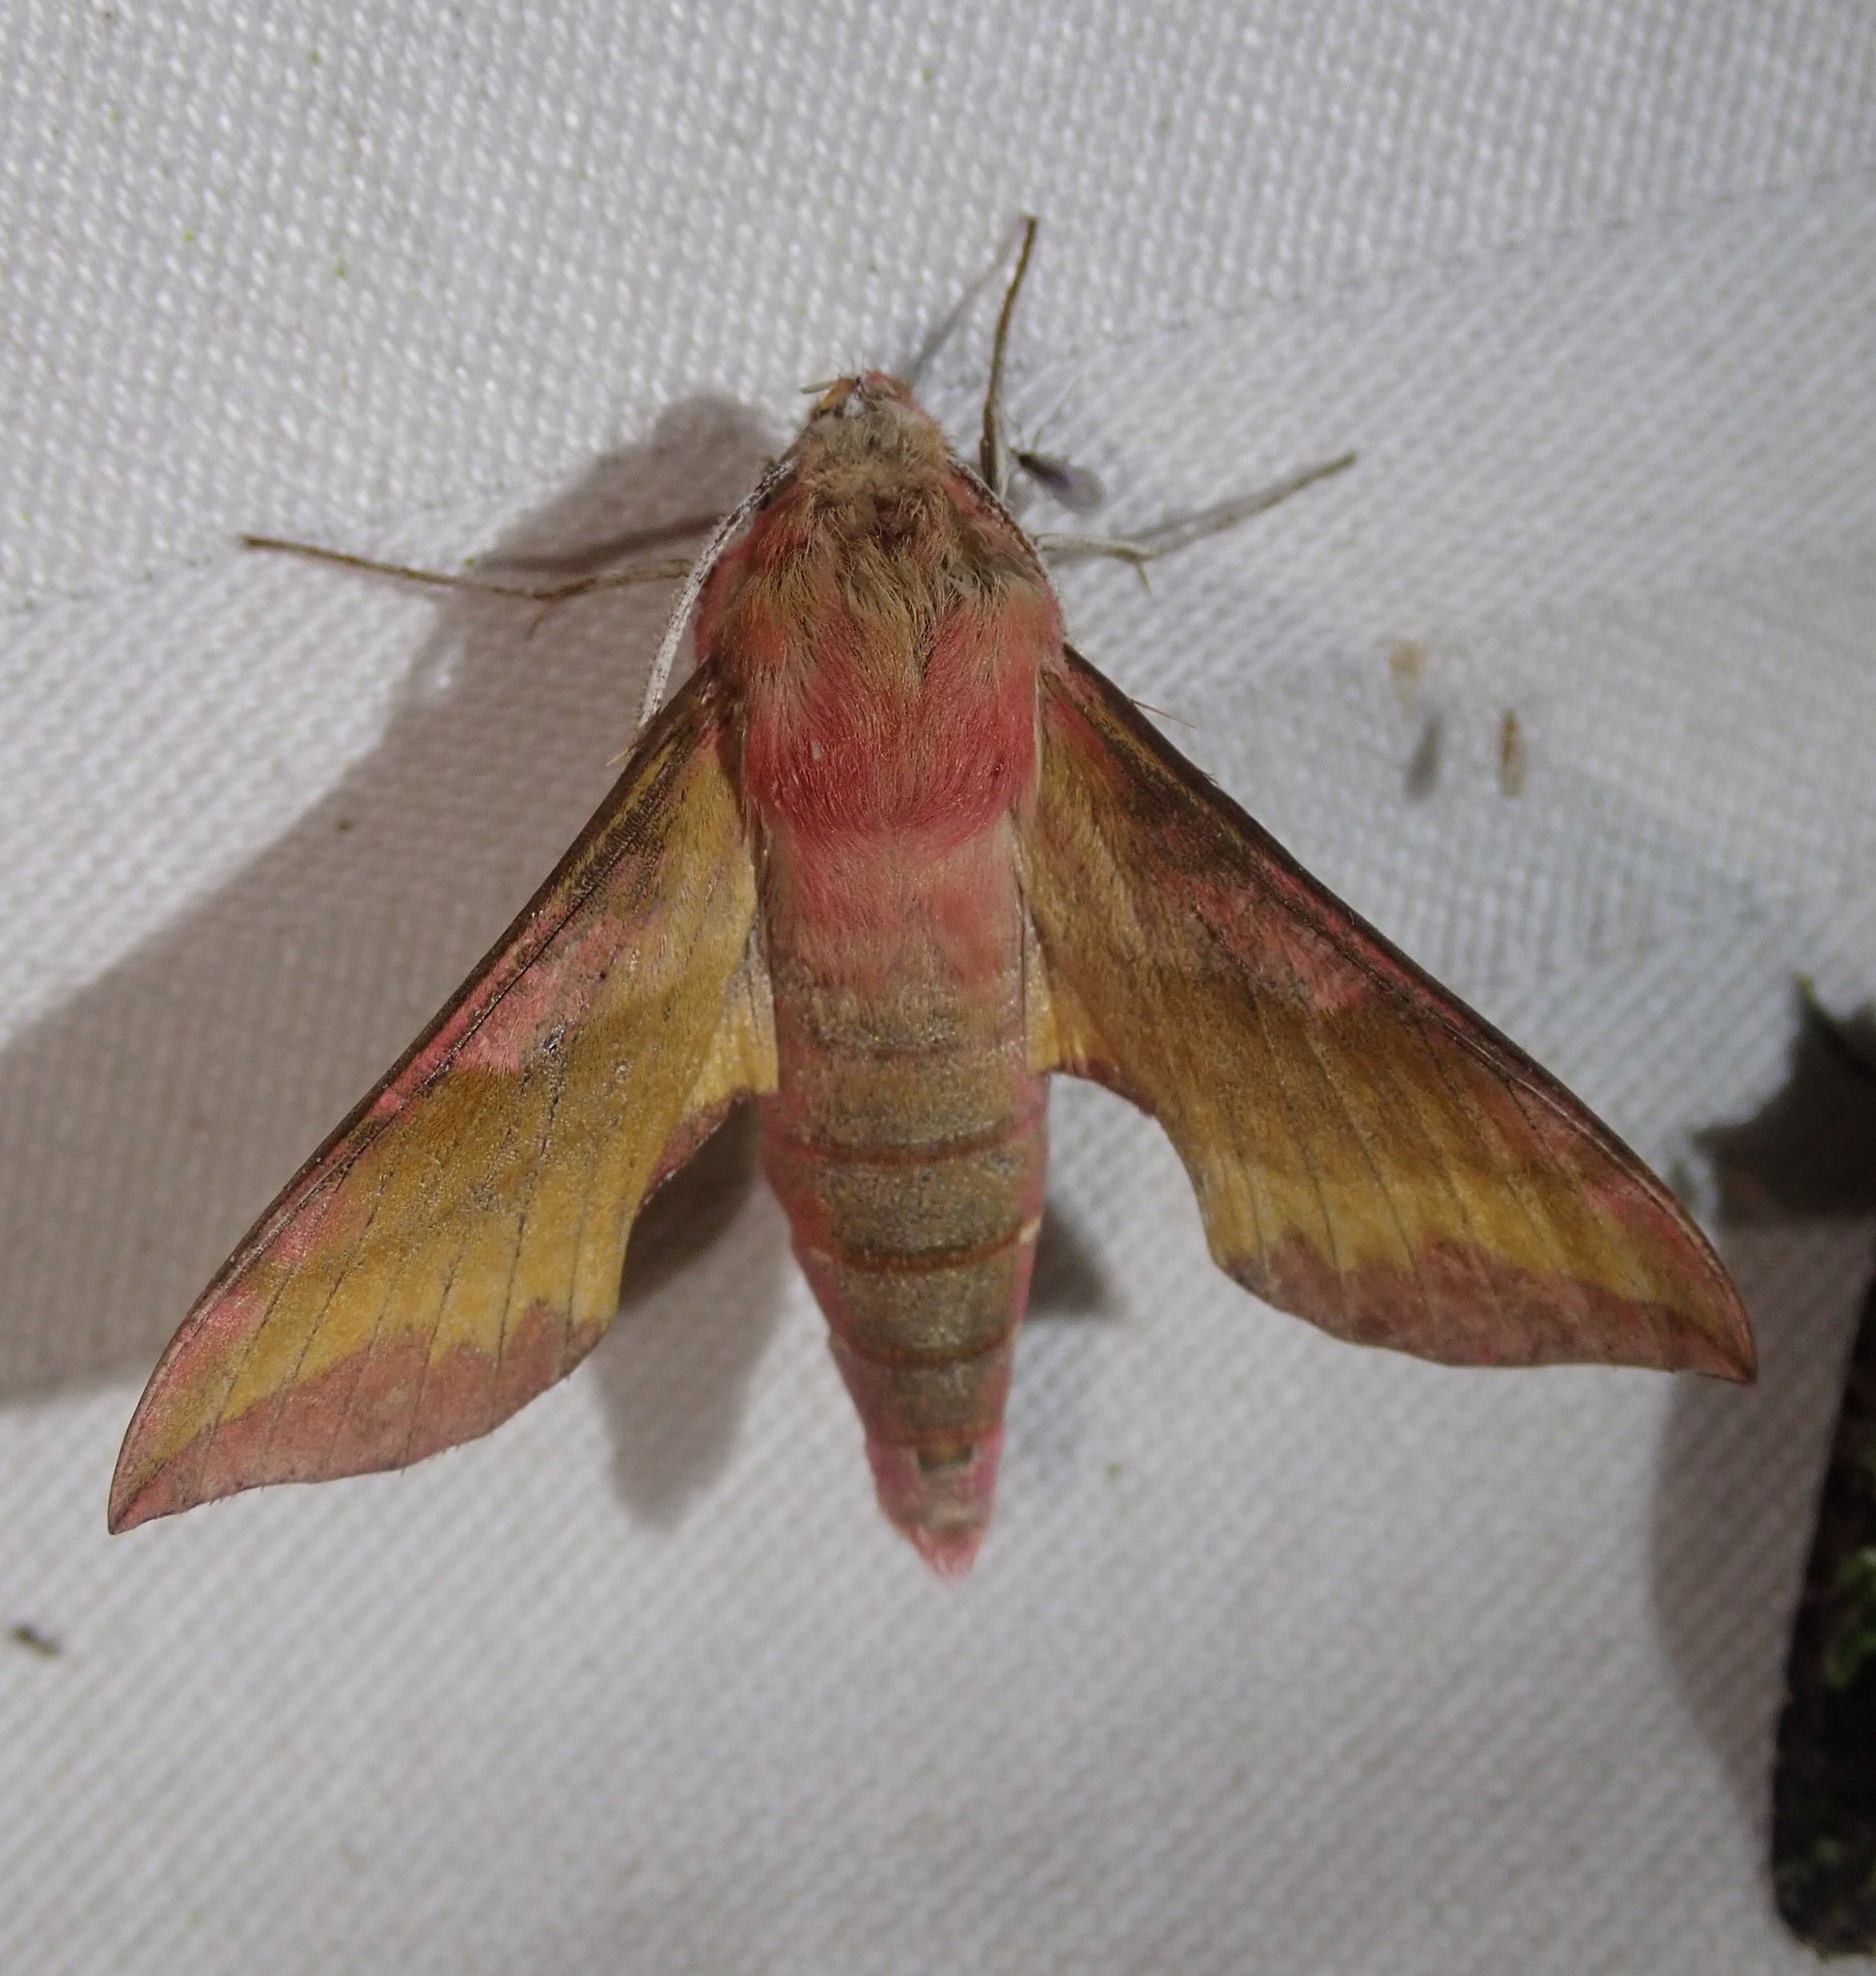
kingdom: Animalia
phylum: Arthropoda
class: Insecta
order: Lepidoptera
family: Sphingidae
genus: Deilephila
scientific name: Deilephila porcellus
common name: Small elephant hawk-moth
